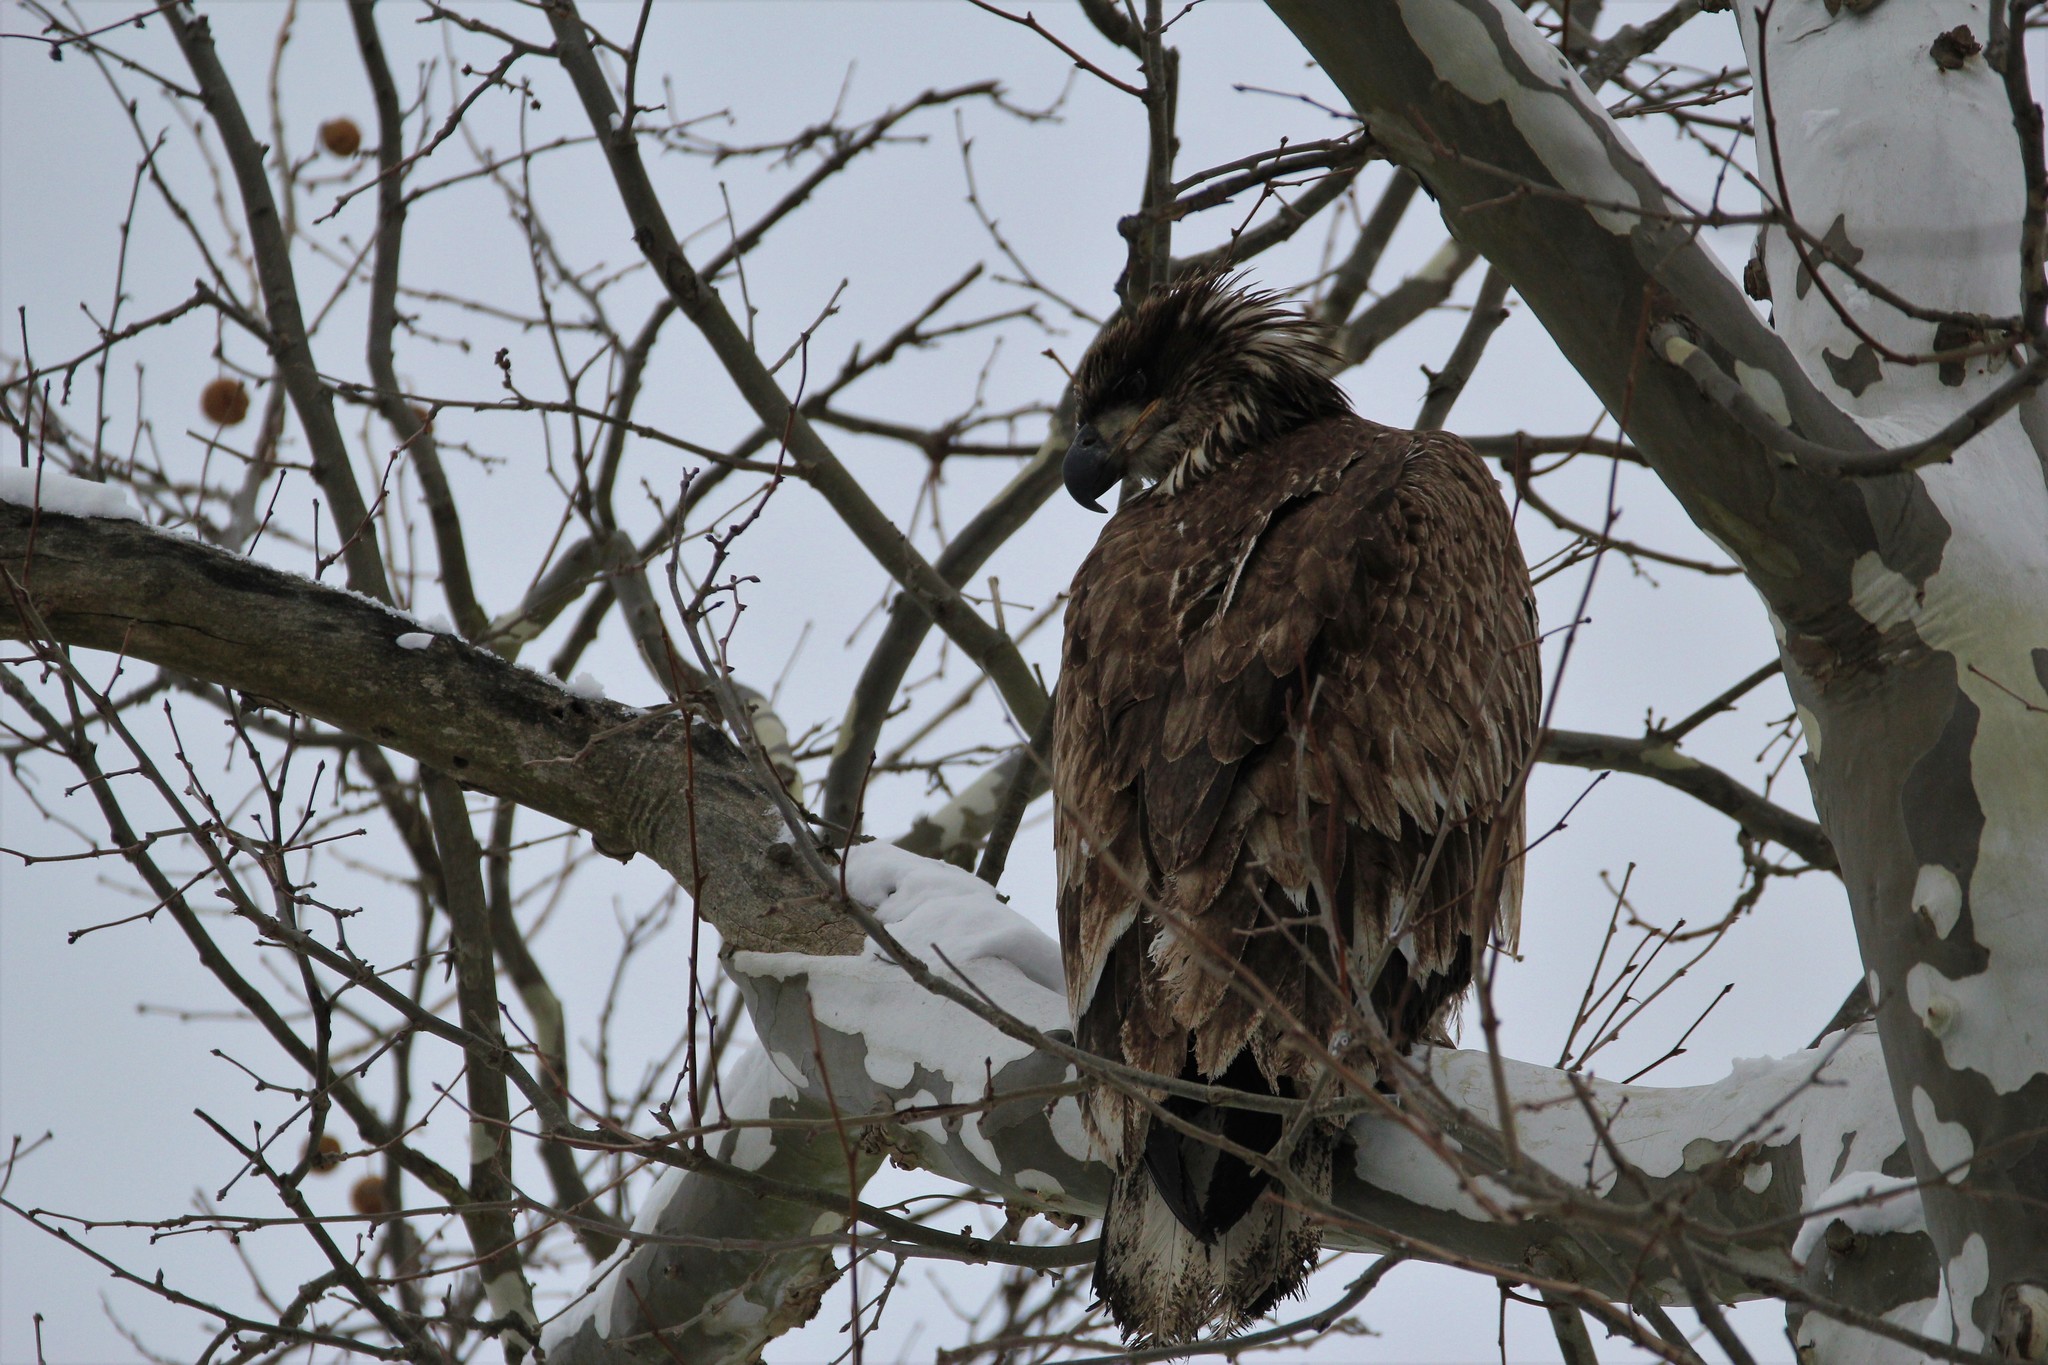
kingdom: Animalia
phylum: Chordata
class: Aves
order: Accipitriformes
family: Accipitridae
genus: Haliaeetus
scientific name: Haliaeetus leucocephalus
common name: Bald eagle
